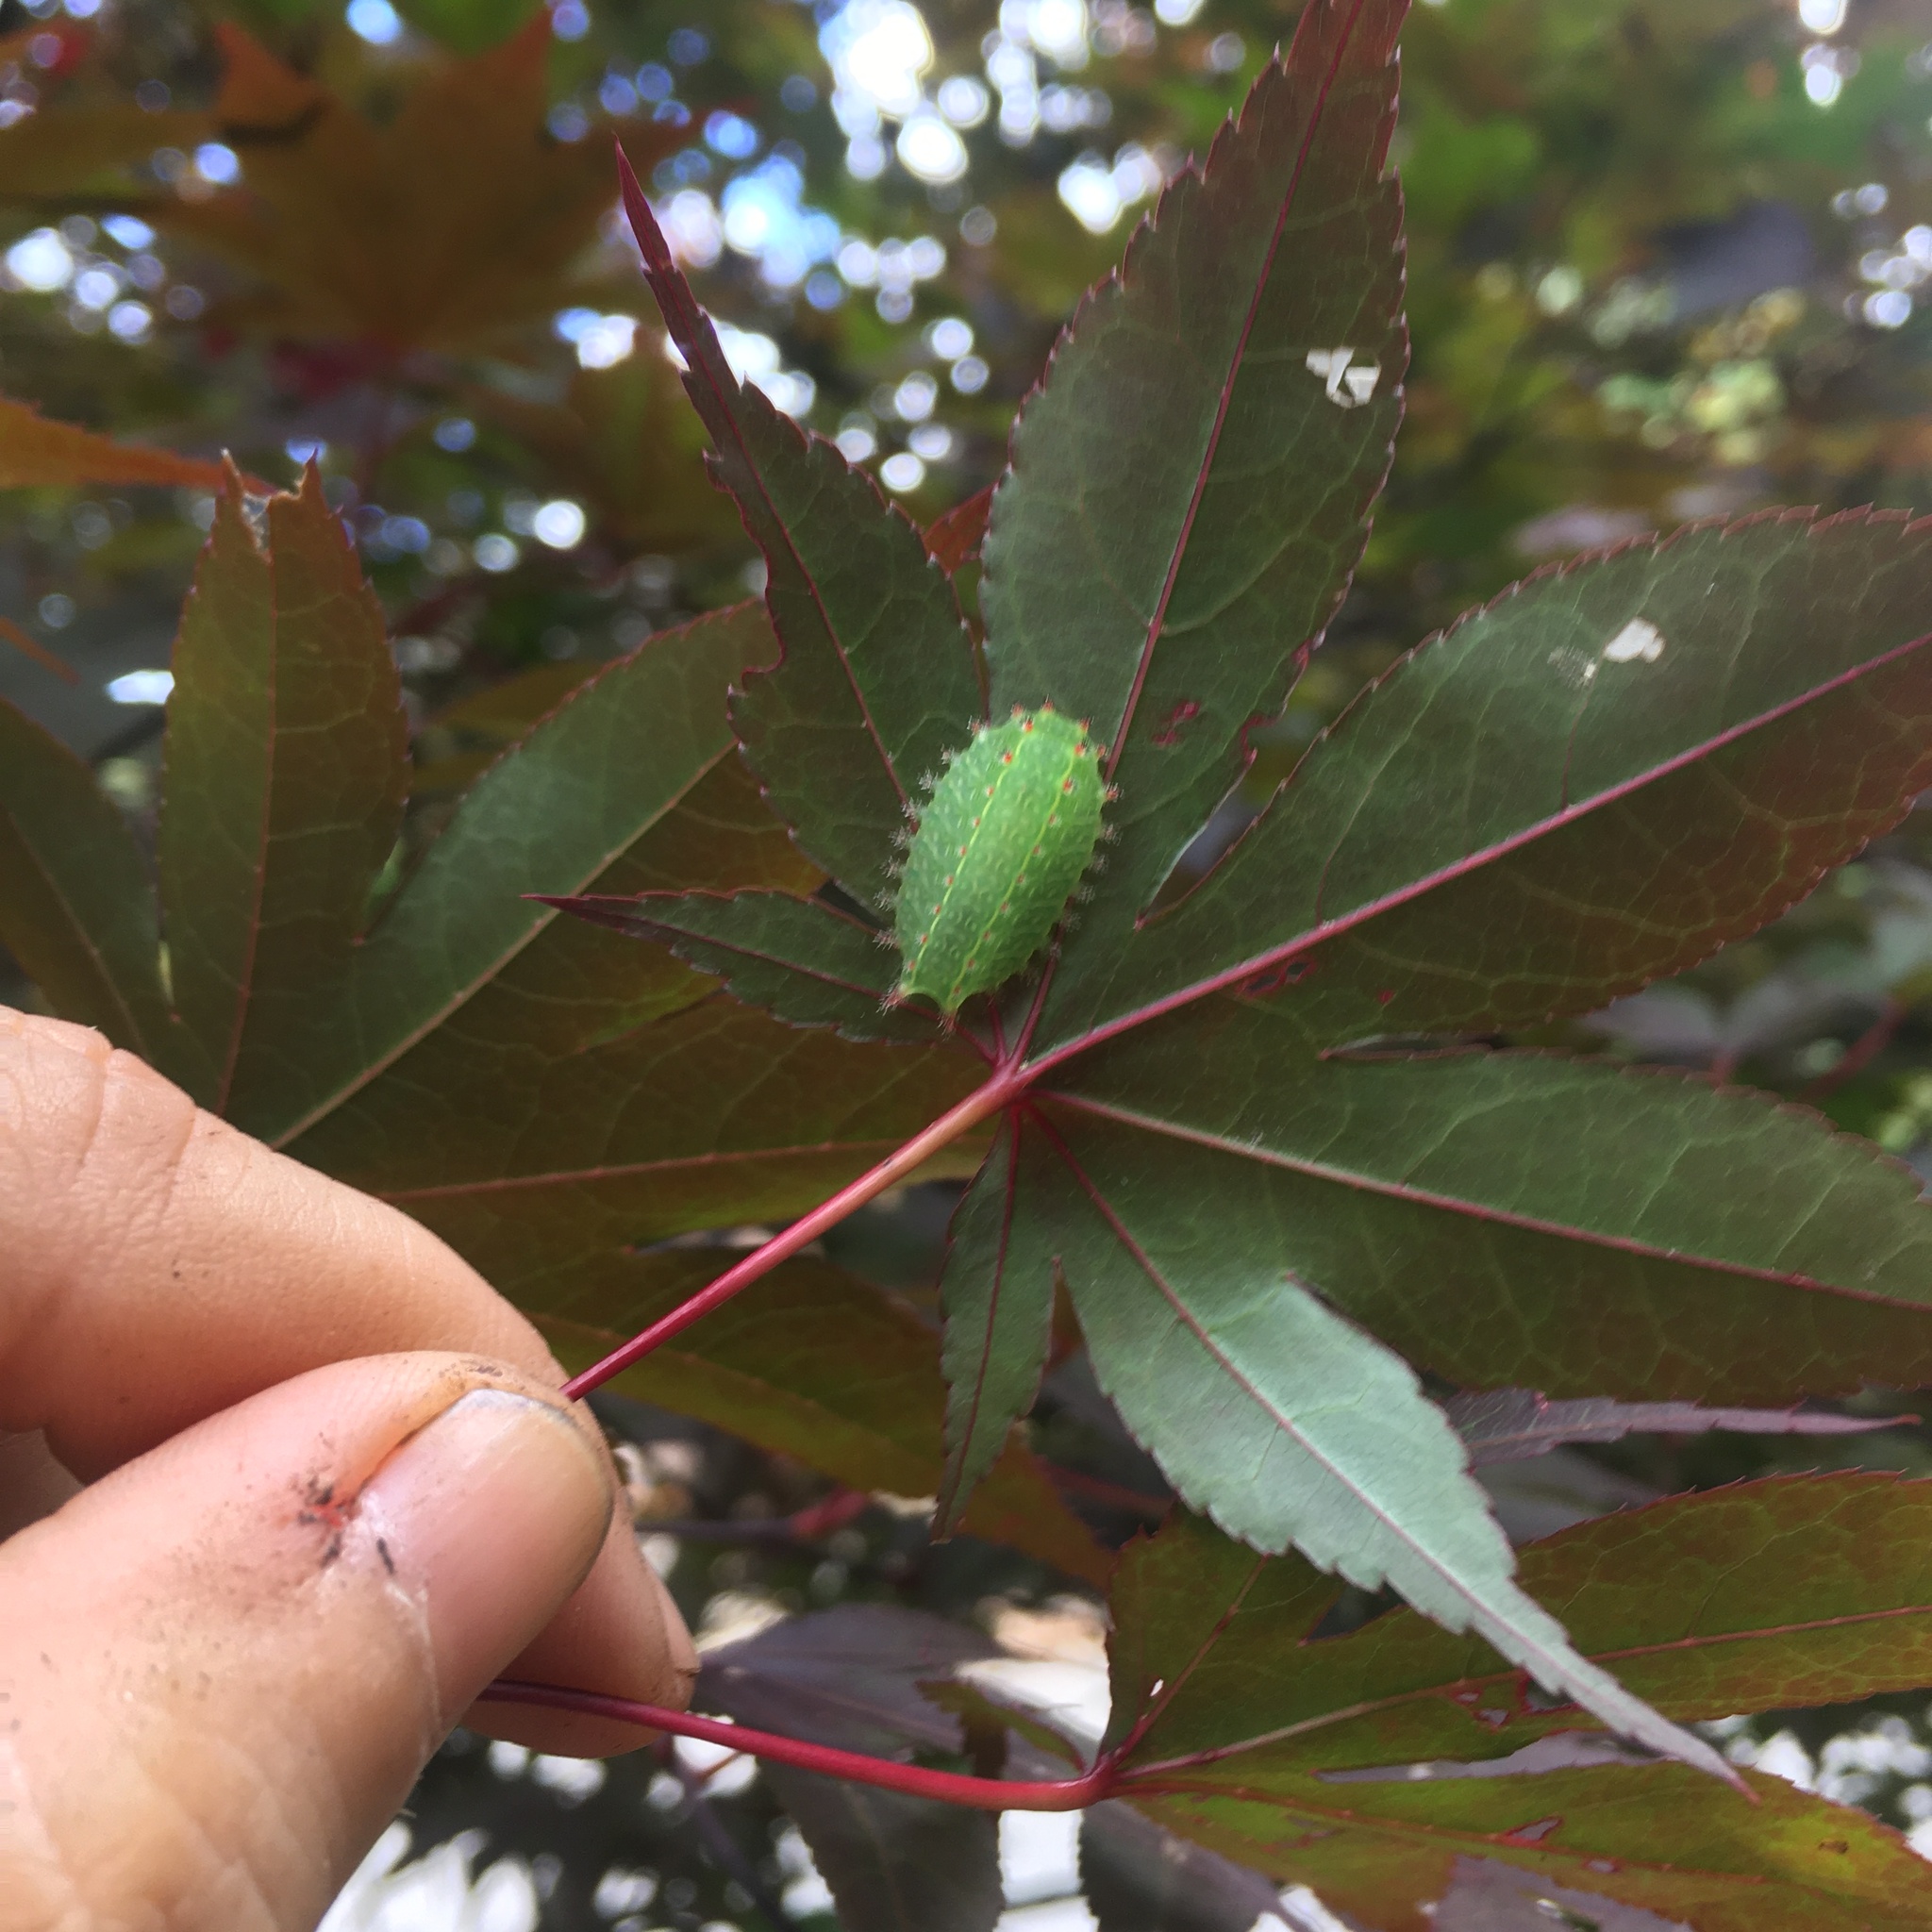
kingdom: Animalia
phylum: Arthropoda
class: Insecta
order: Lepidoptera
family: Limacodidae
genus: Natada
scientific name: Natada nasoni
